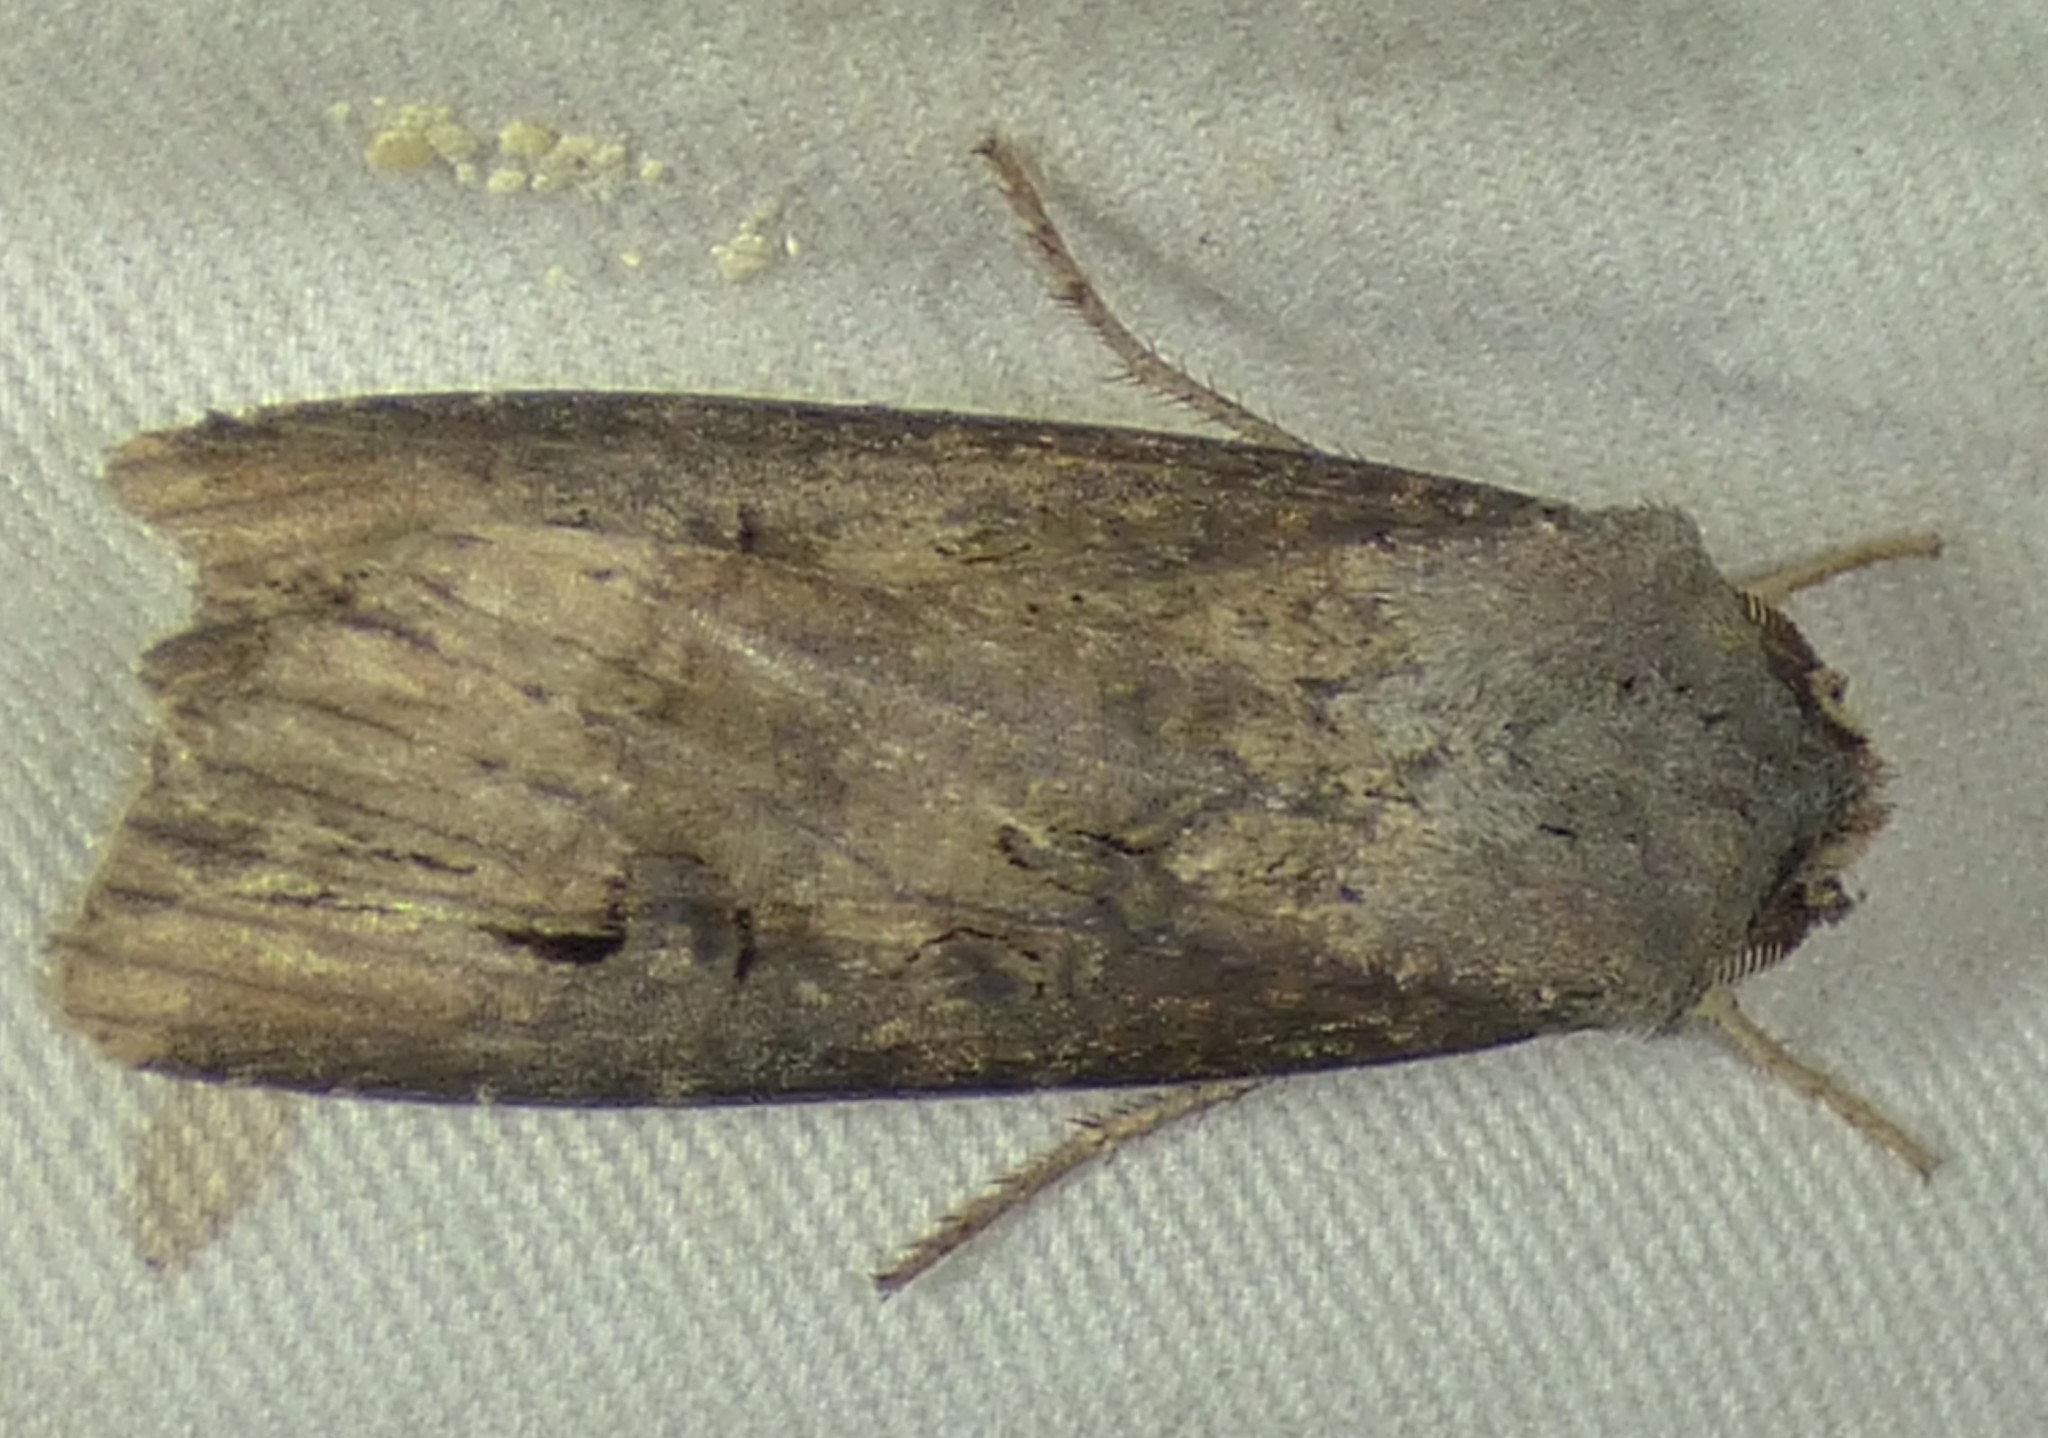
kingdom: Animalia
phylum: Arthropoda
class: Insecta
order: Lepidoptera
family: Noctuidae
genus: Agrotis
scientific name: Agrotis ipsilon
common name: Dark sword-grass
